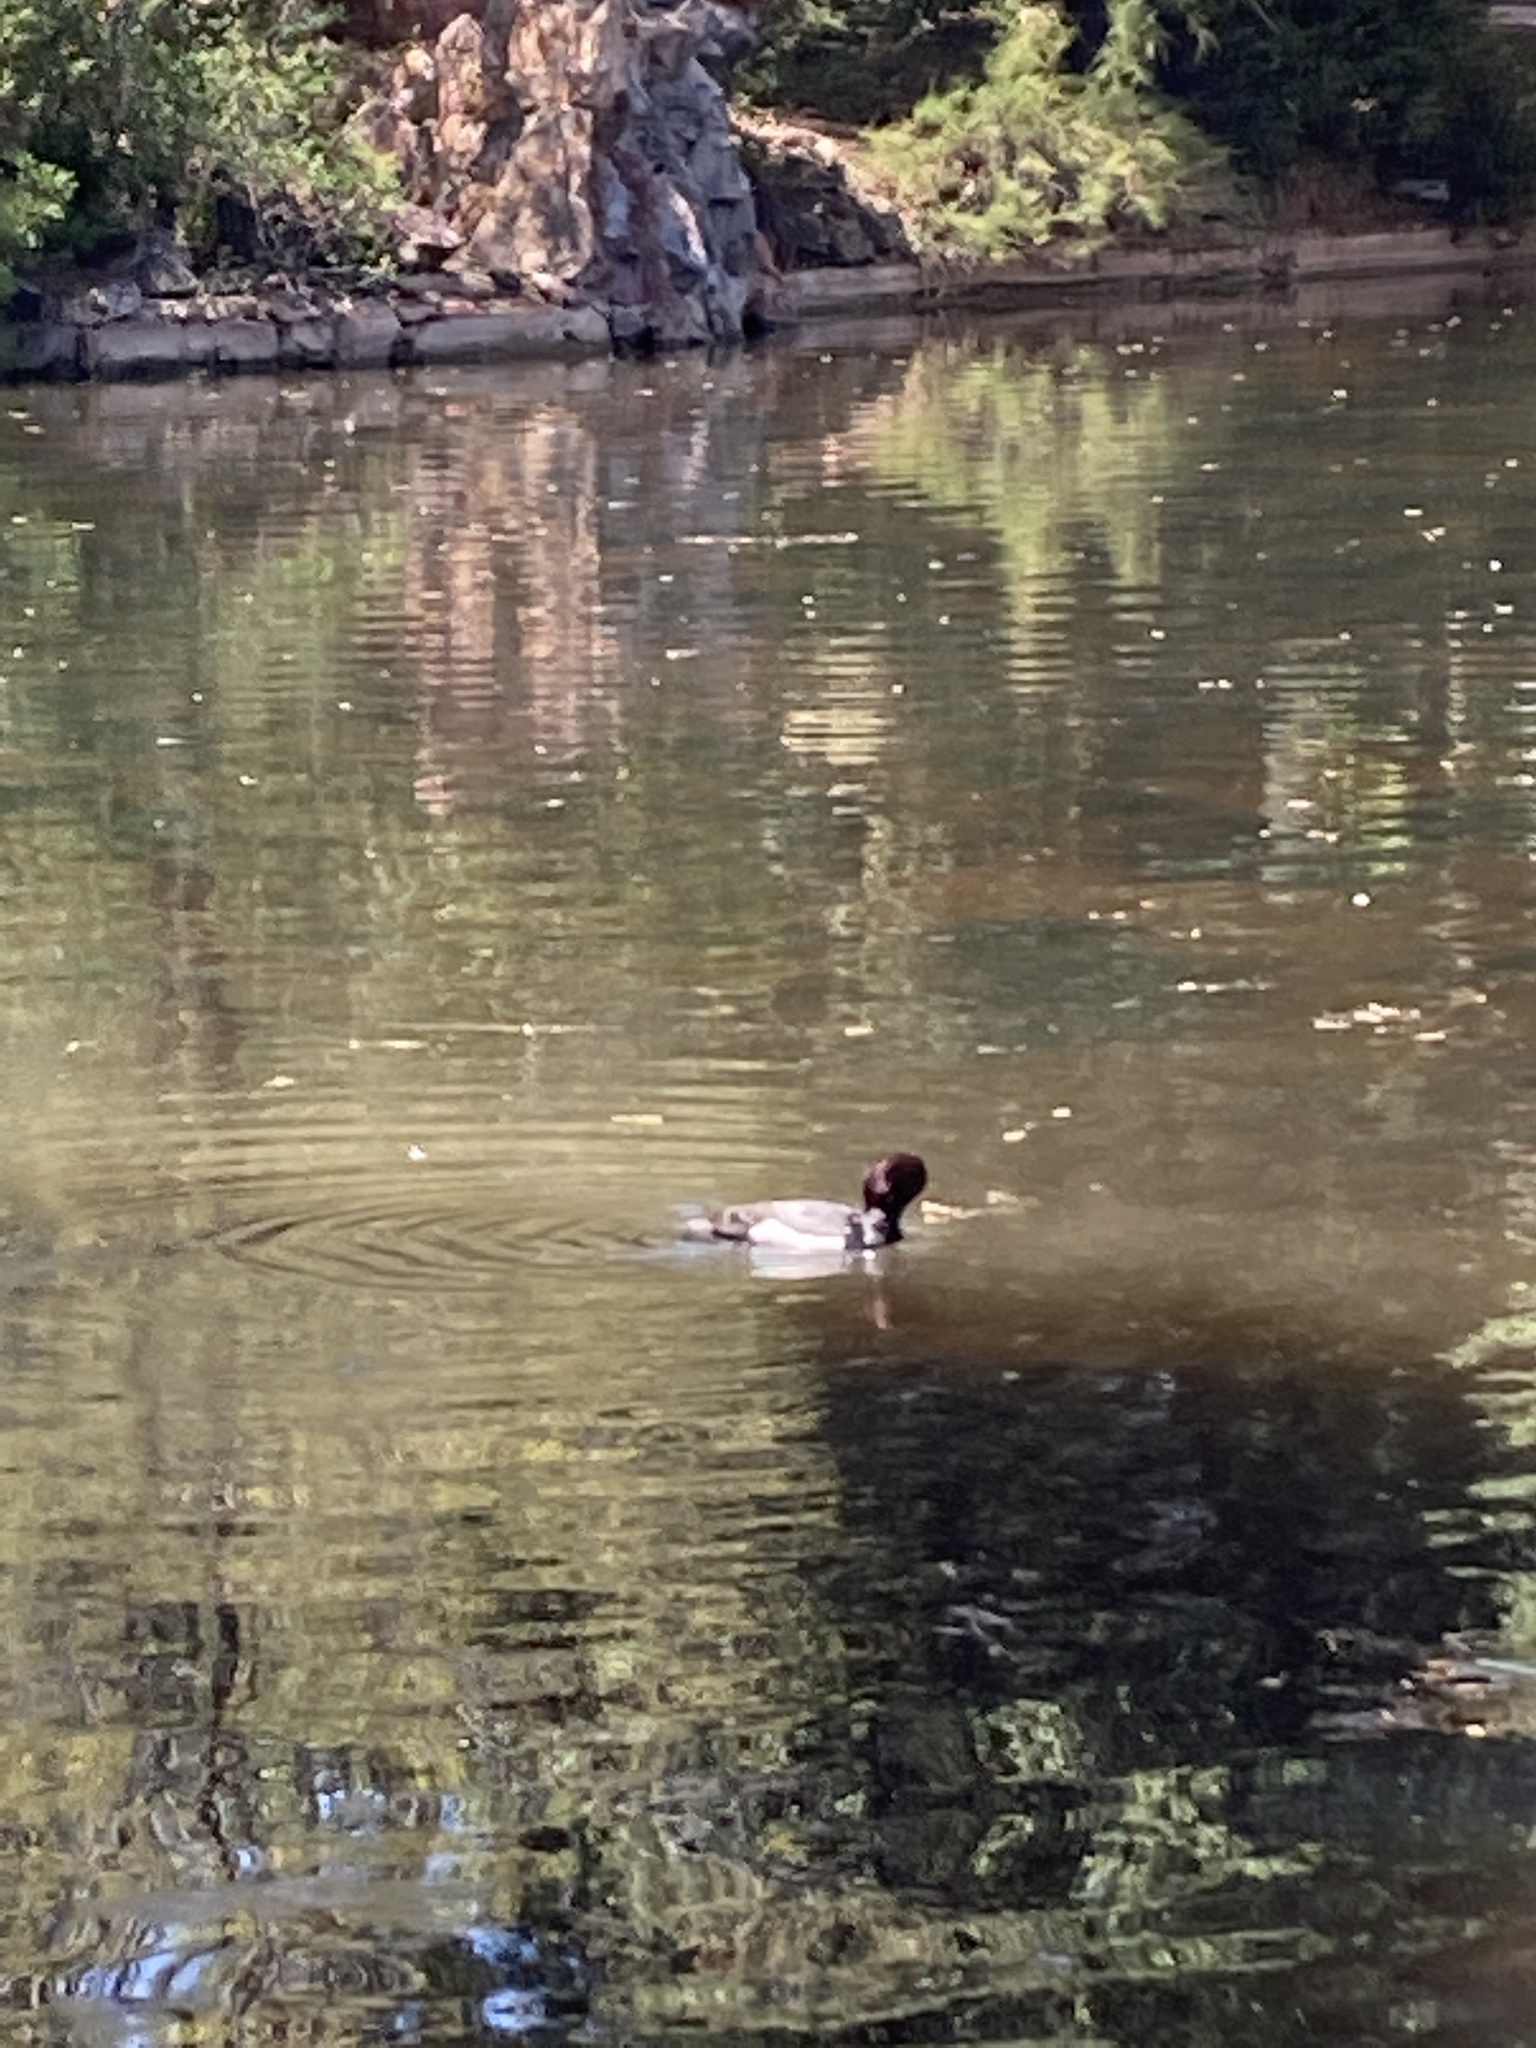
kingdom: Animalia
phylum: Chordata
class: Aves
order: Anseriformes
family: Anatidae
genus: Aythya
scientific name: Aythya
